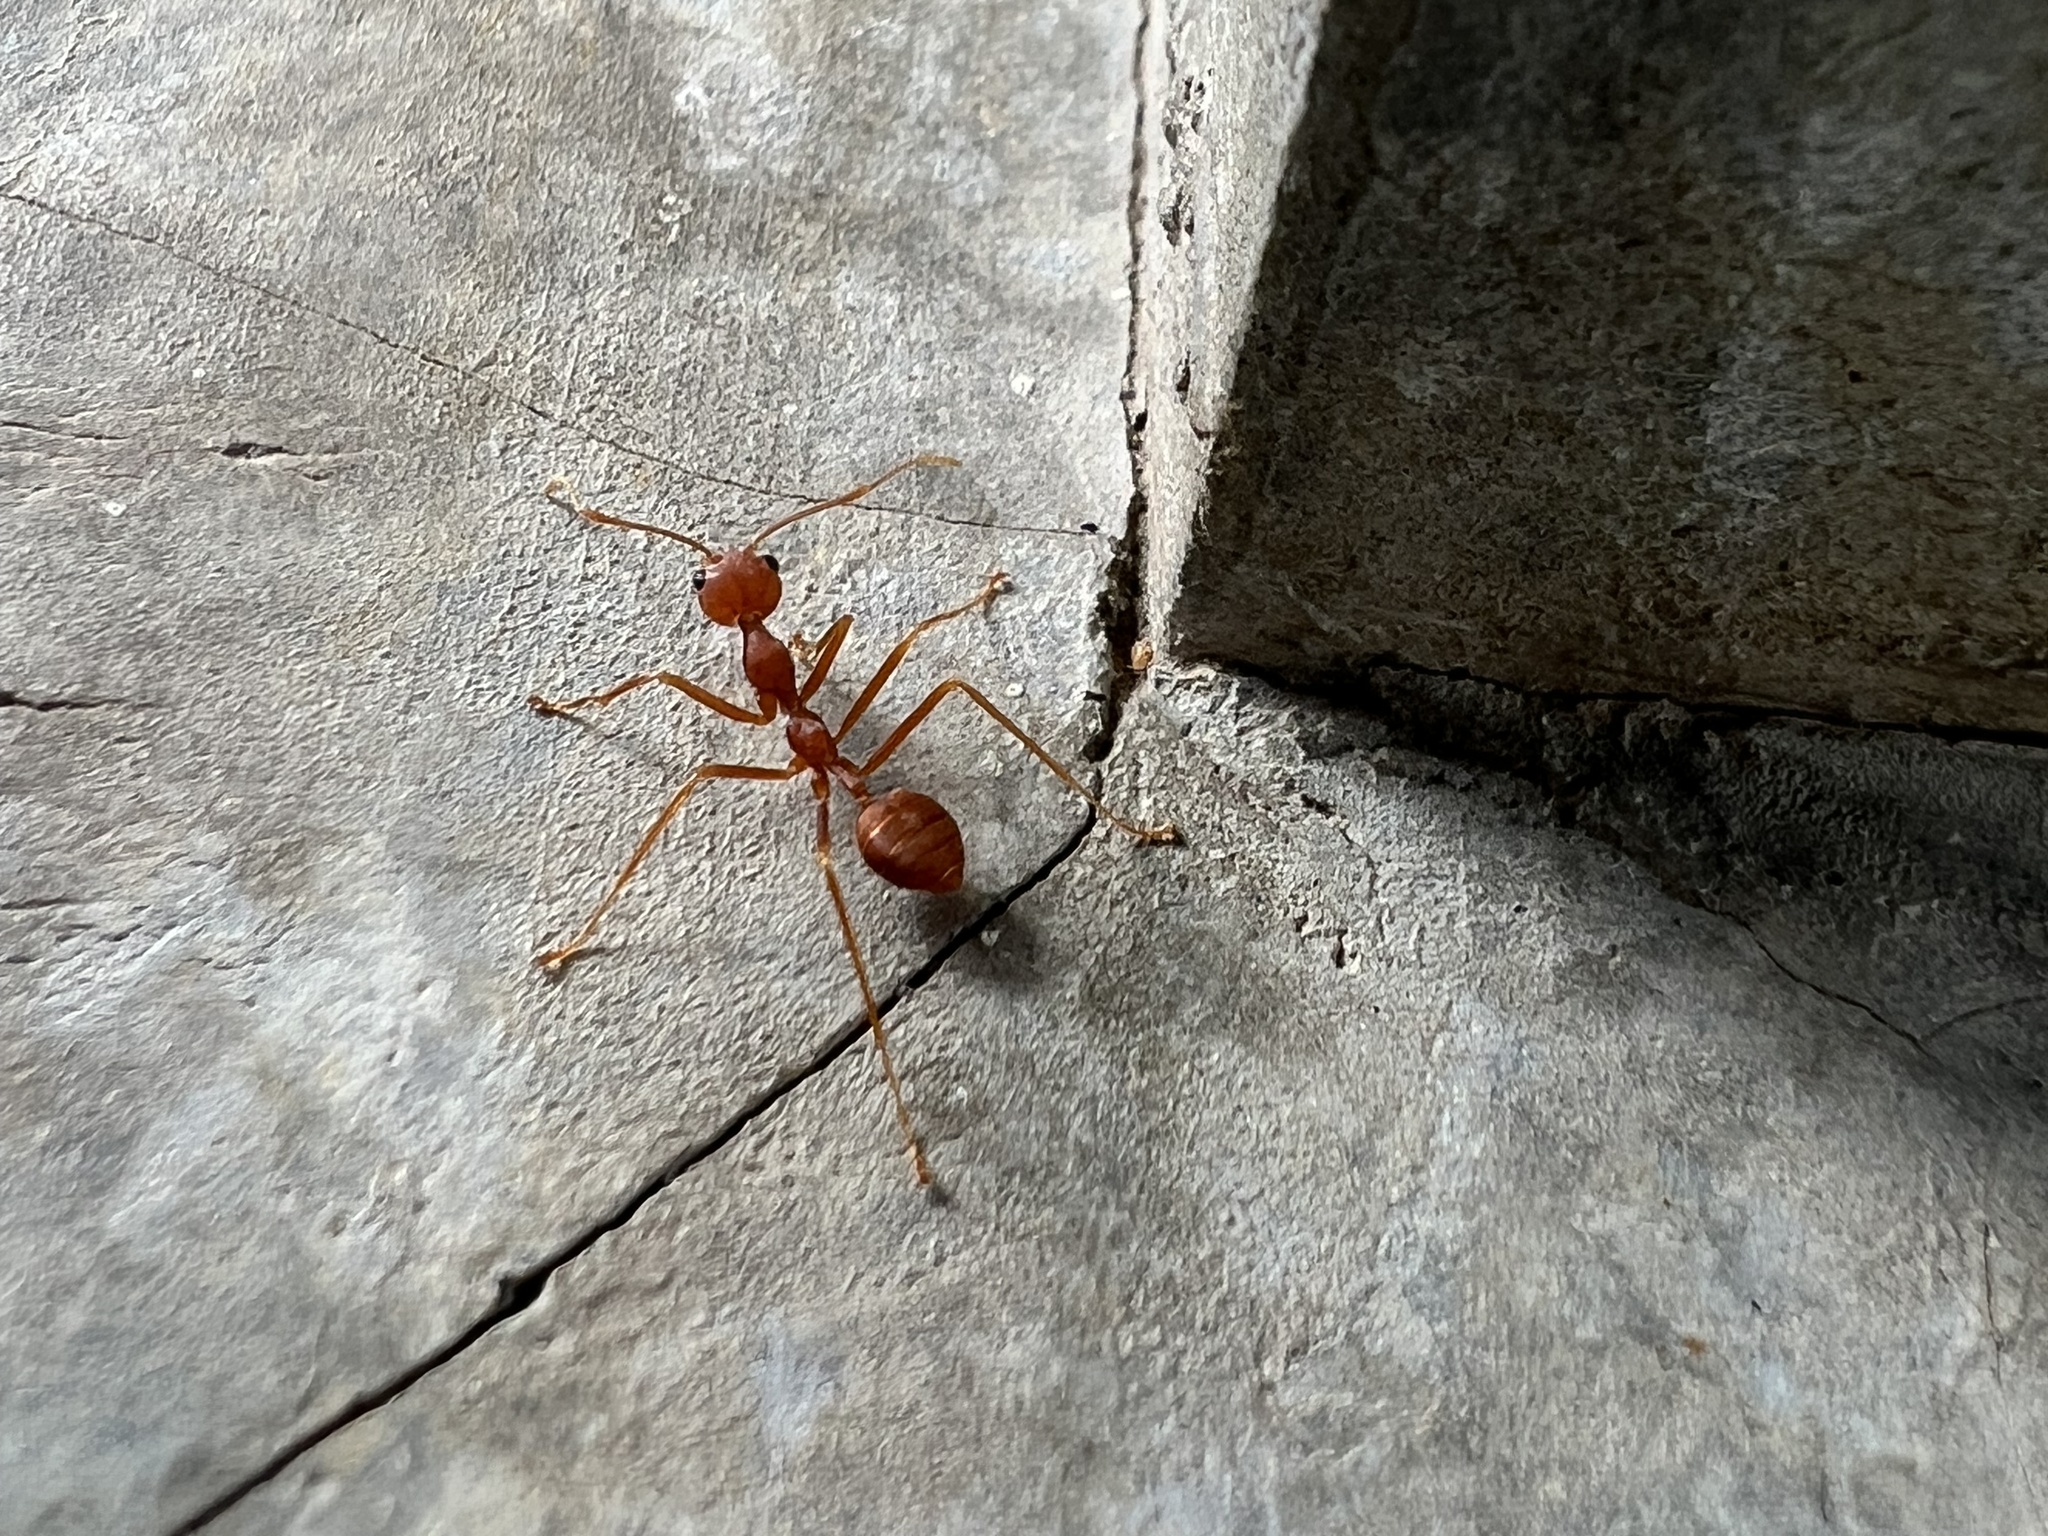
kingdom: Animalia
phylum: Arthropoda
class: Insecta
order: Hymenoptera
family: Formicidae
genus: Oecophylla
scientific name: Oecophylla smaragdina
